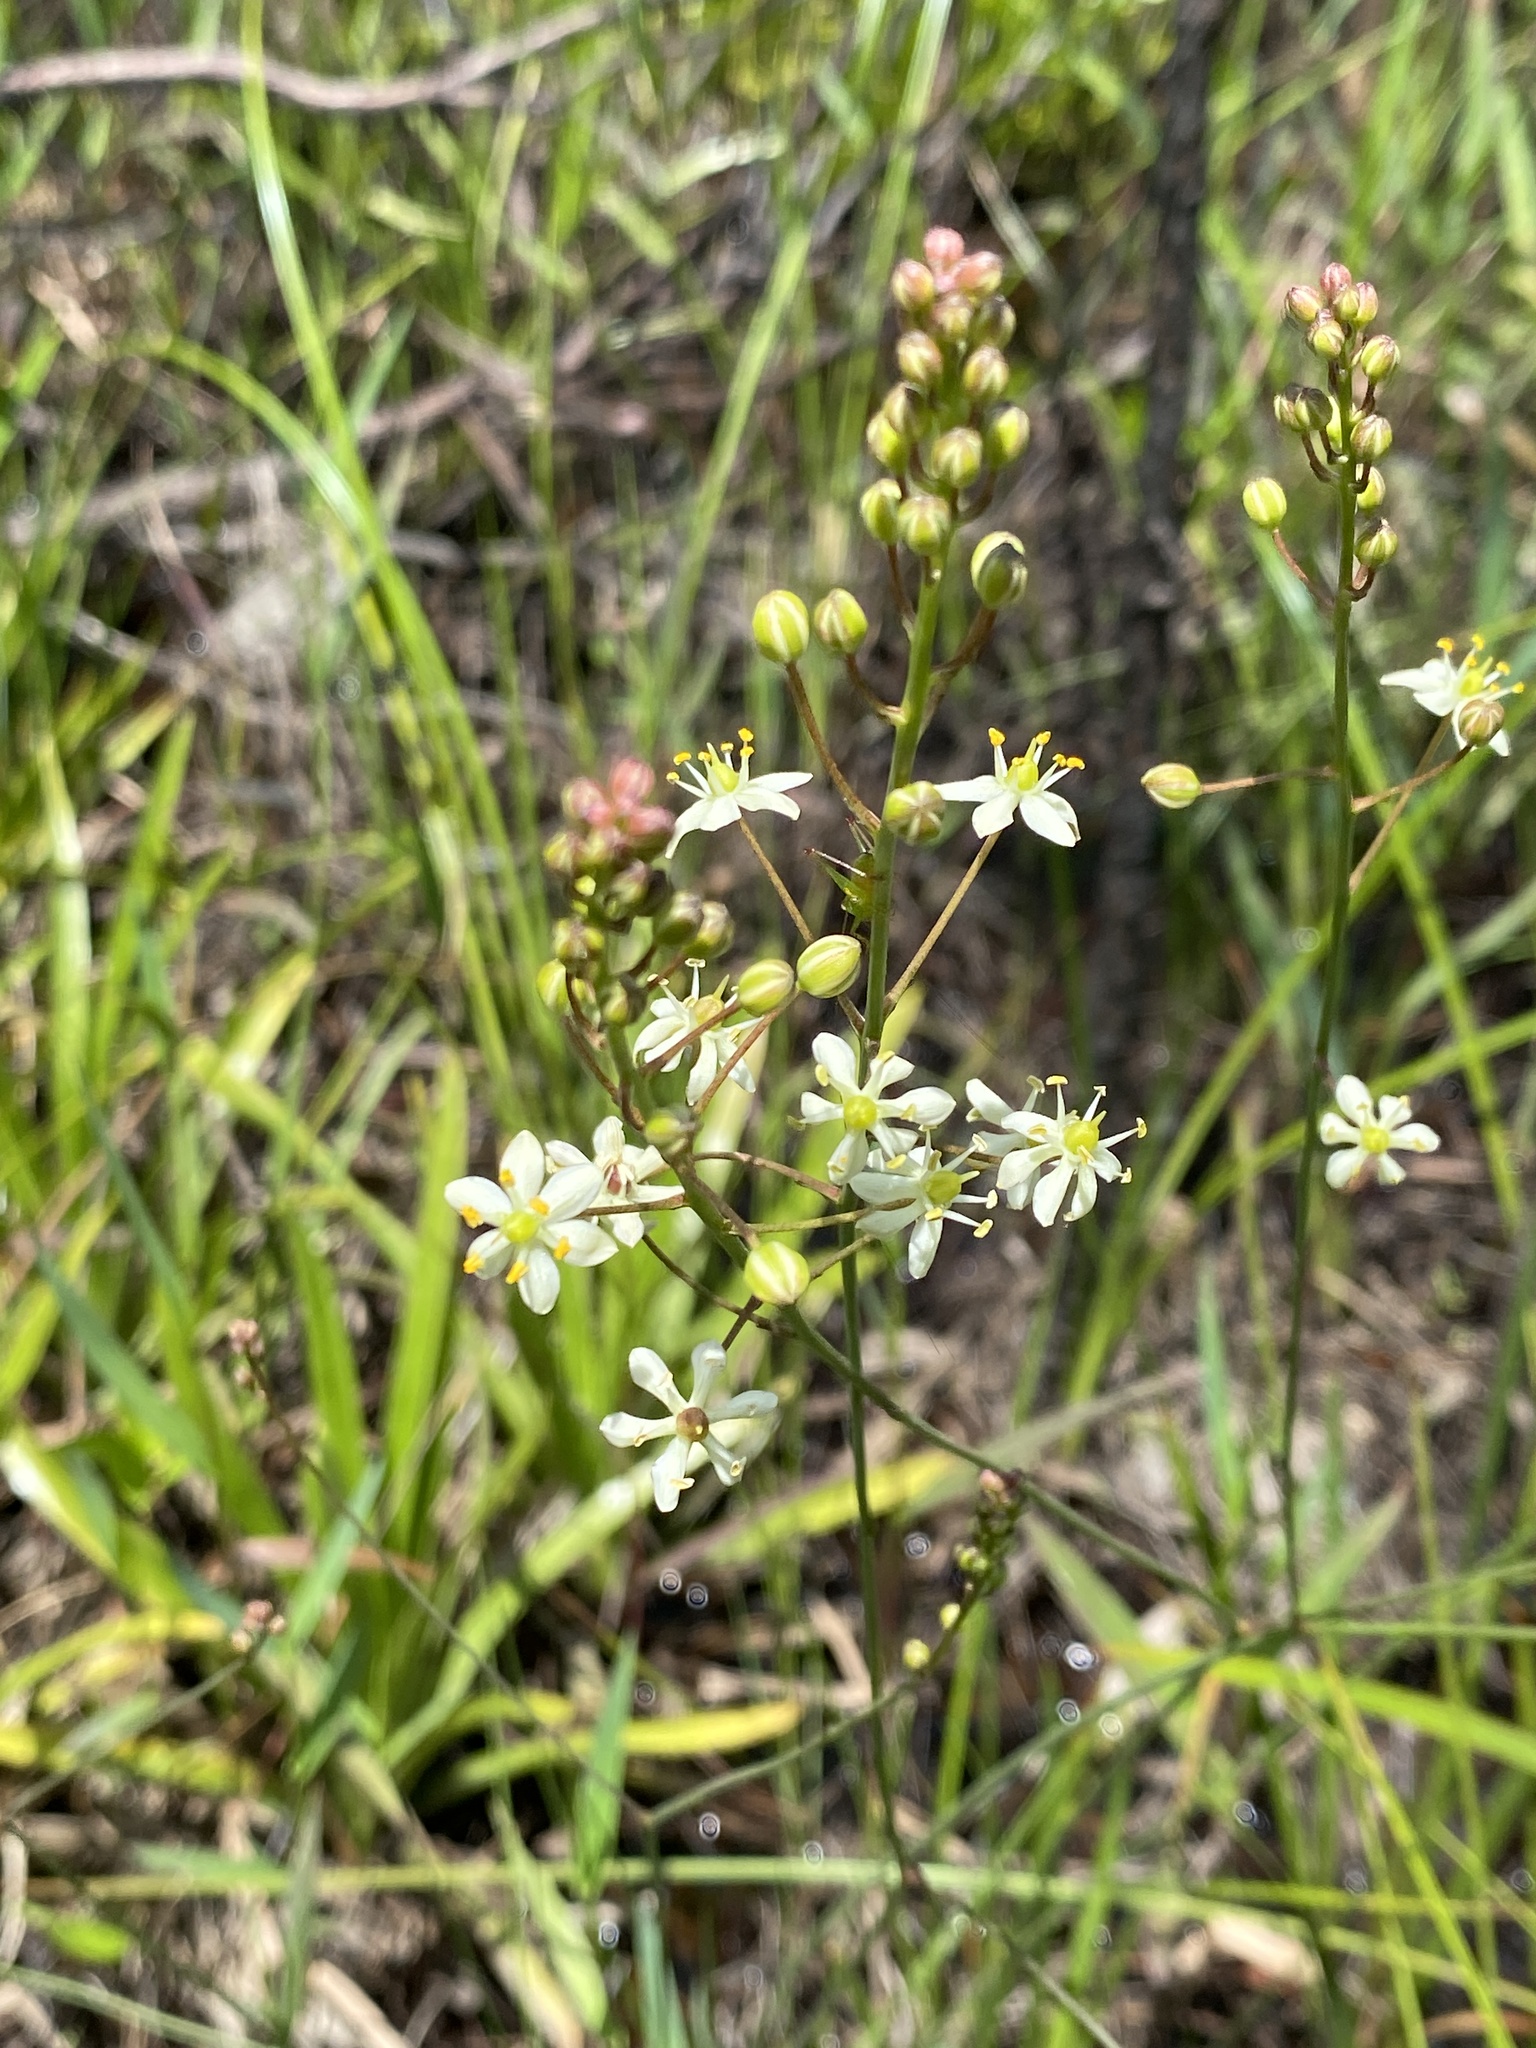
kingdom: Plantae
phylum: Tracheophyta
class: Liliopsida
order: Asparagales
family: Asparagaceae
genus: Schoenolirion
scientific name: Schoenolirion albiflorum
